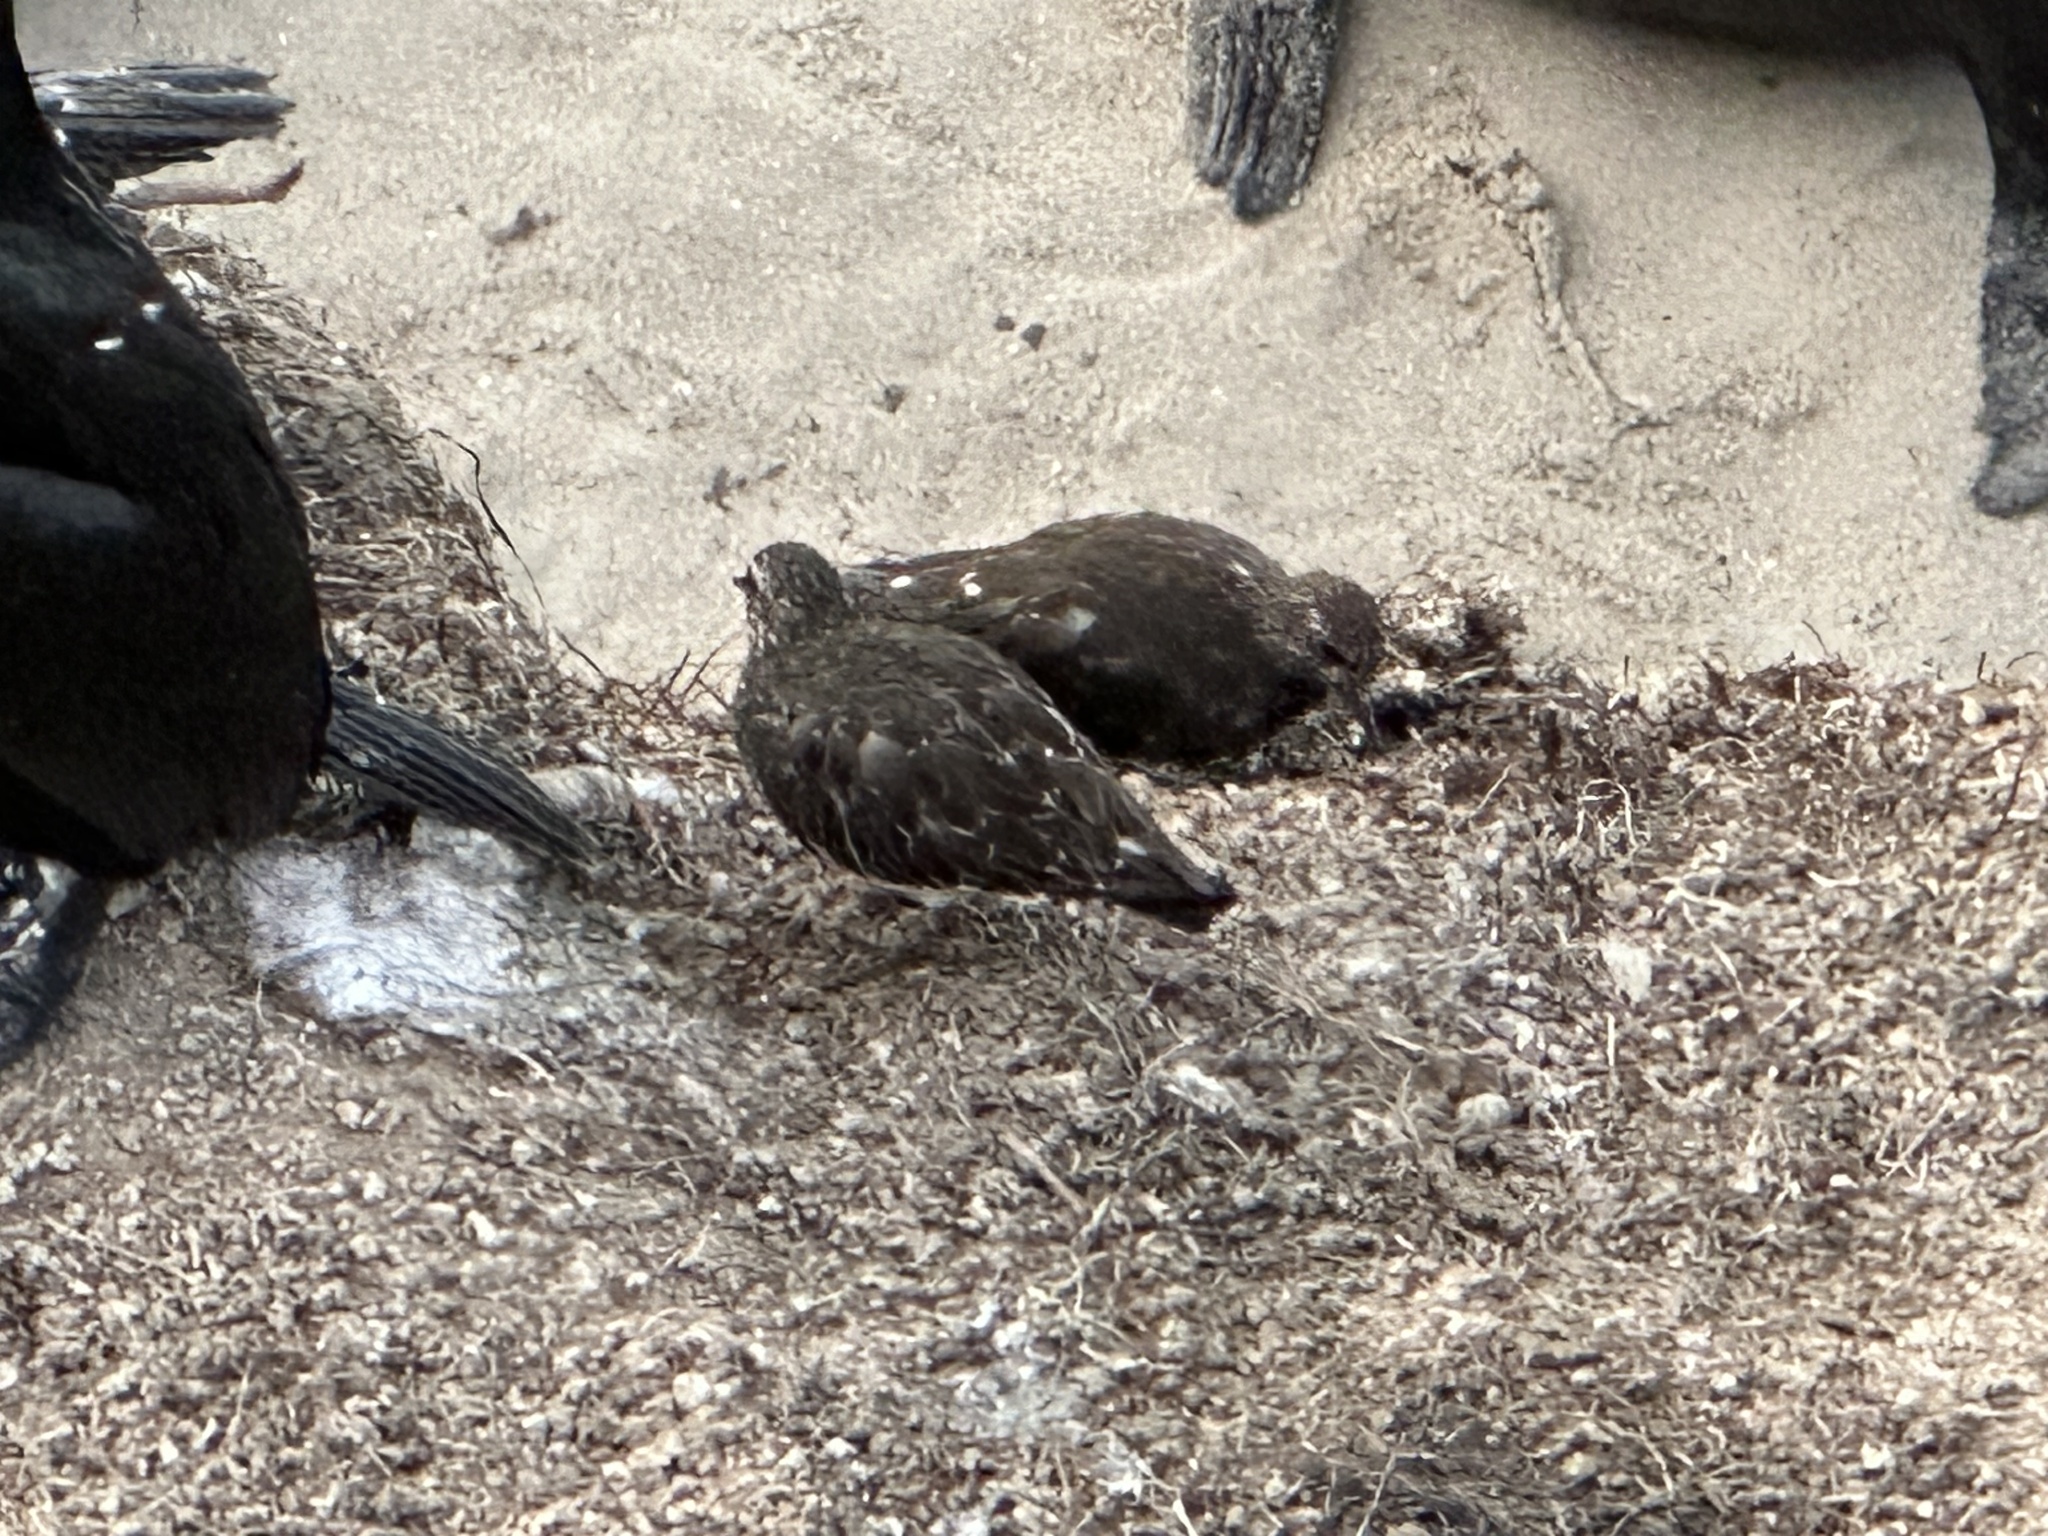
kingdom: Animalia
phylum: Chordata
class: Aves
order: Charadriiformes
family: Scolopacidae
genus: Arenaria
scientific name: Arenaria melanocephala
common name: Black turnstone
